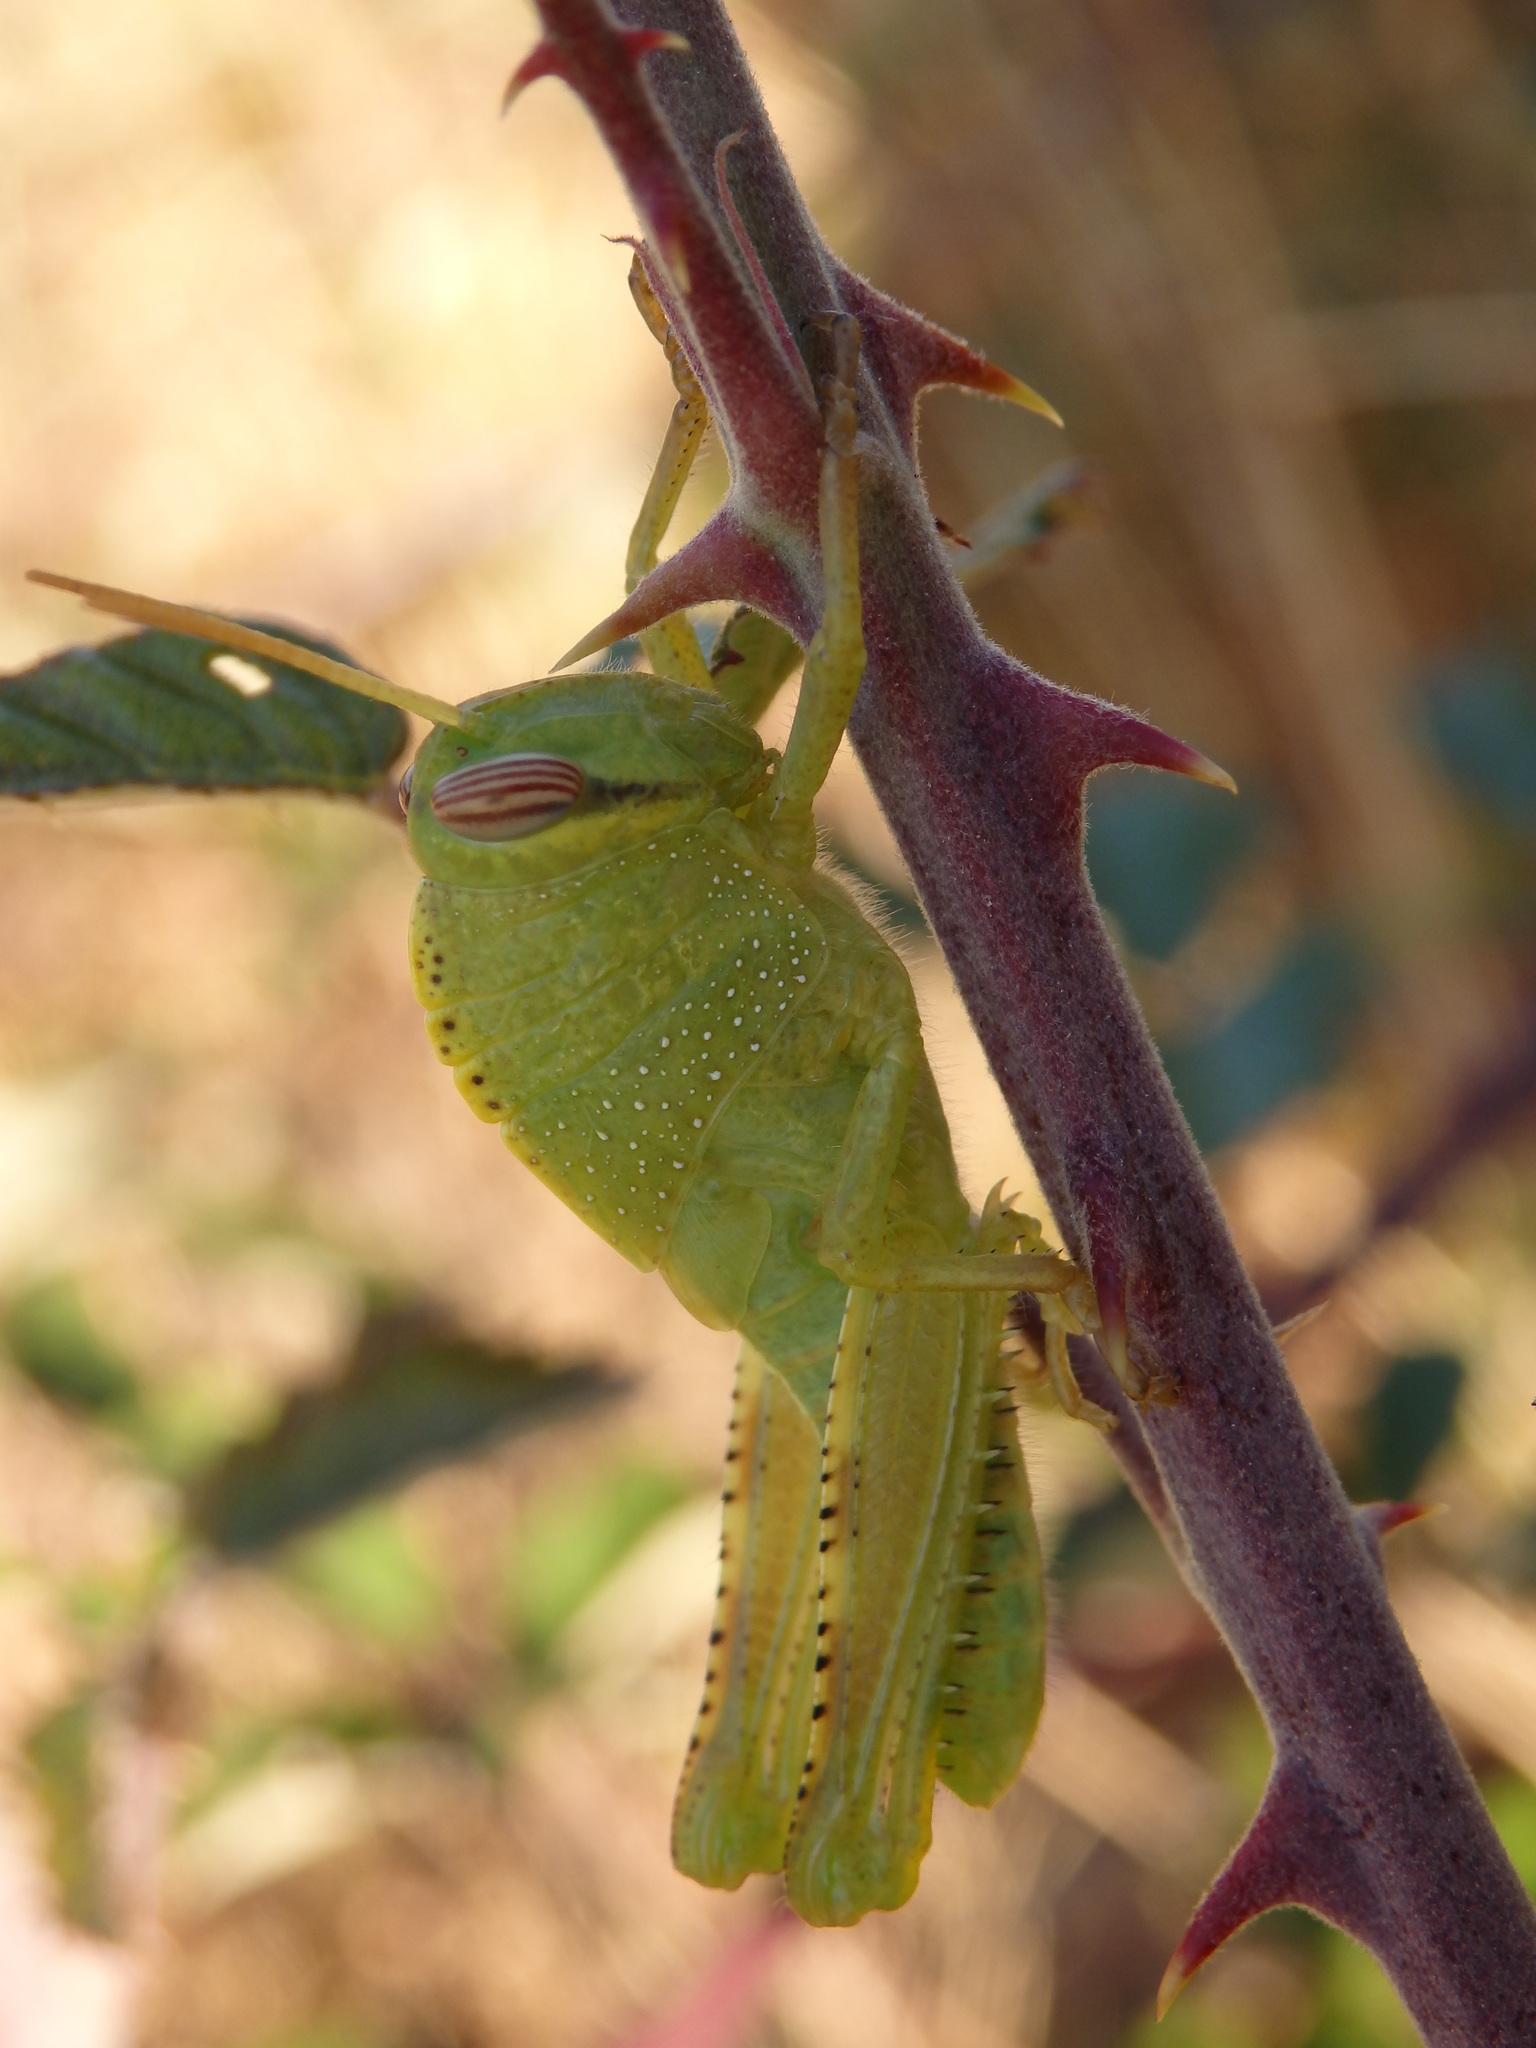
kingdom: Animalia
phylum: Arthropoda
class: Insecta
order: Orthoptera
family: Acrididae
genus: Anacridium
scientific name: Anacridium aegyptium
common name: Egyptian grasshopper
